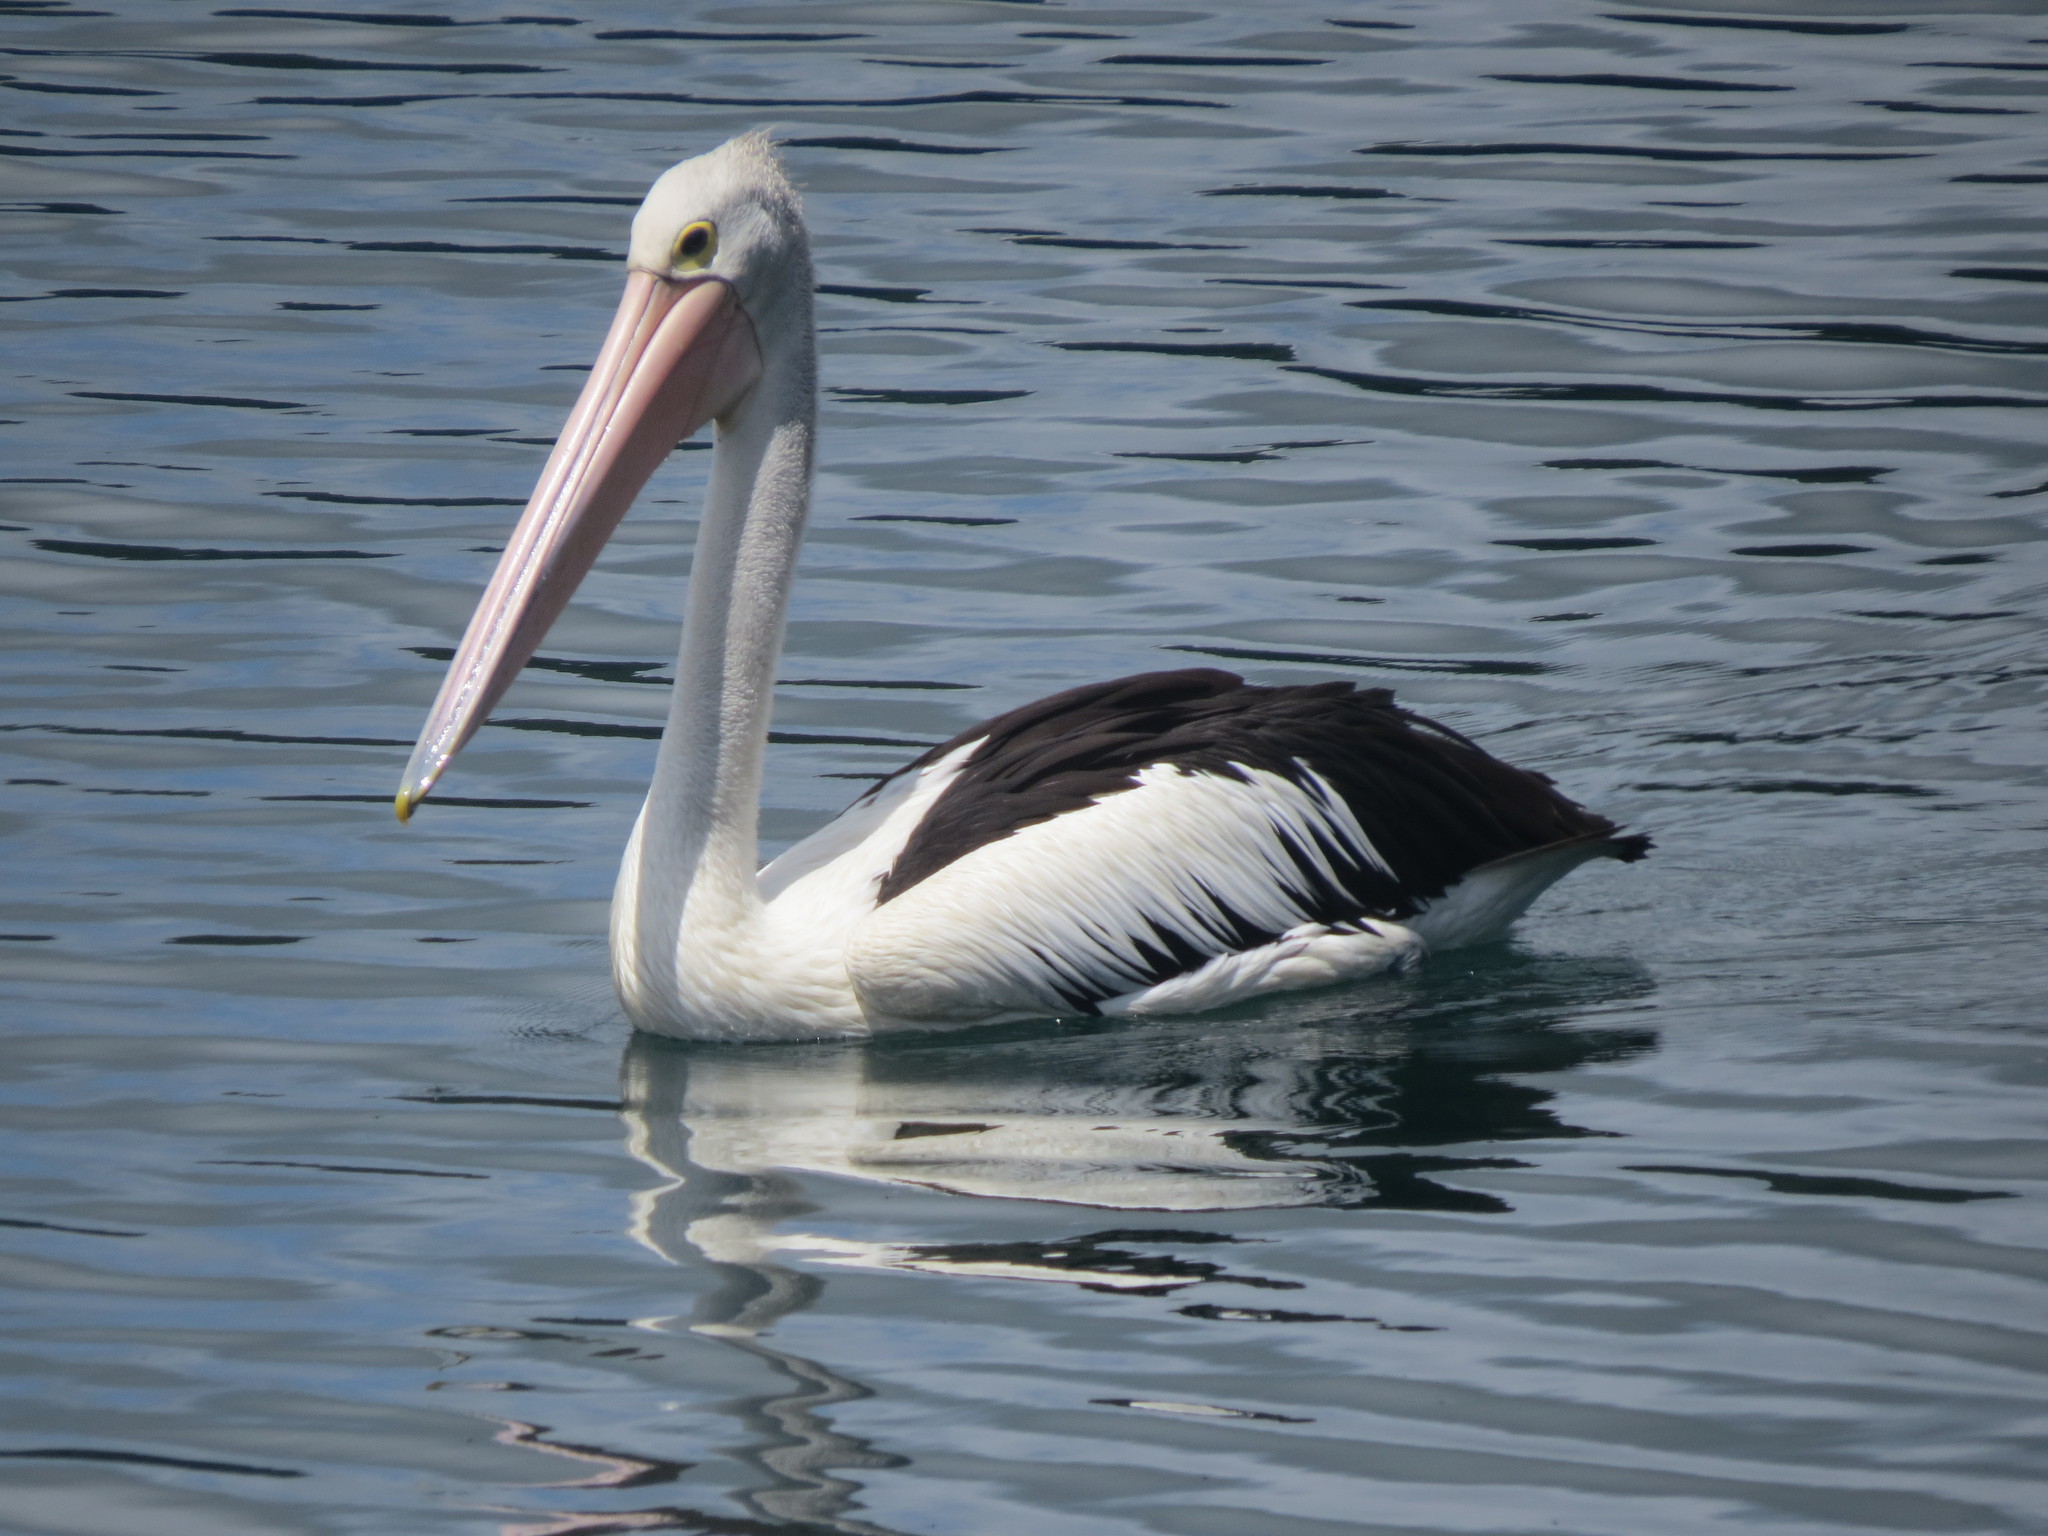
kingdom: Animalia
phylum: Chordata
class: Aves
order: Pelecaniformes
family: Pelecanidae
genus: Pelecanus
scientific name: Pelecanus conspicillatus
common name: Australian pelican
